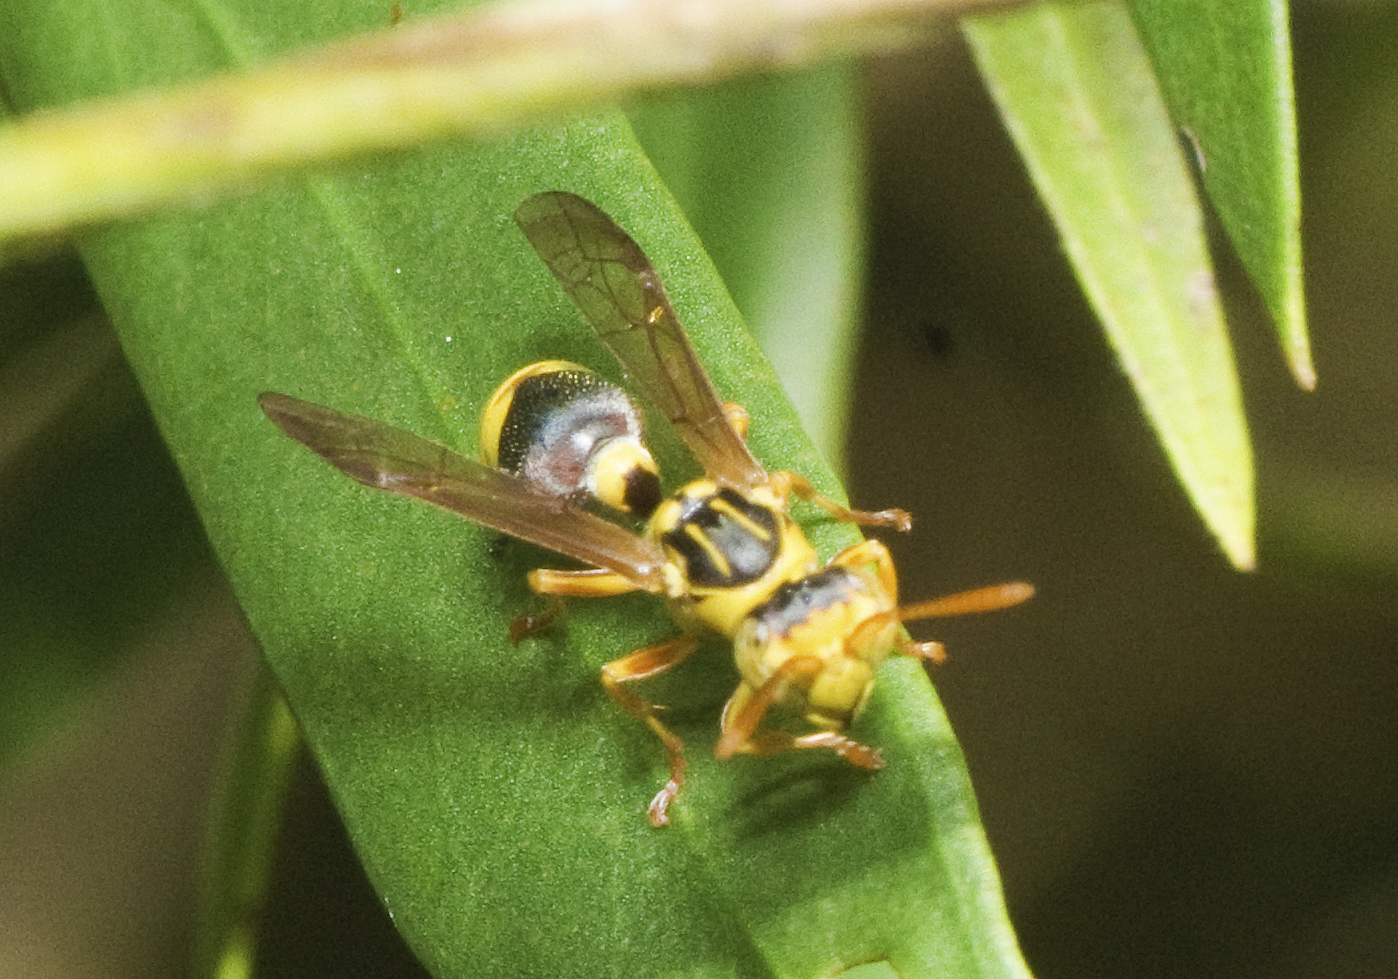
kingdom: Animalia
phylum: Arthropoda
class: Insecta
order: Hymenoptera
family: Vespidae
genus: Ropalidia
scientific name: Ropalidia romandi
